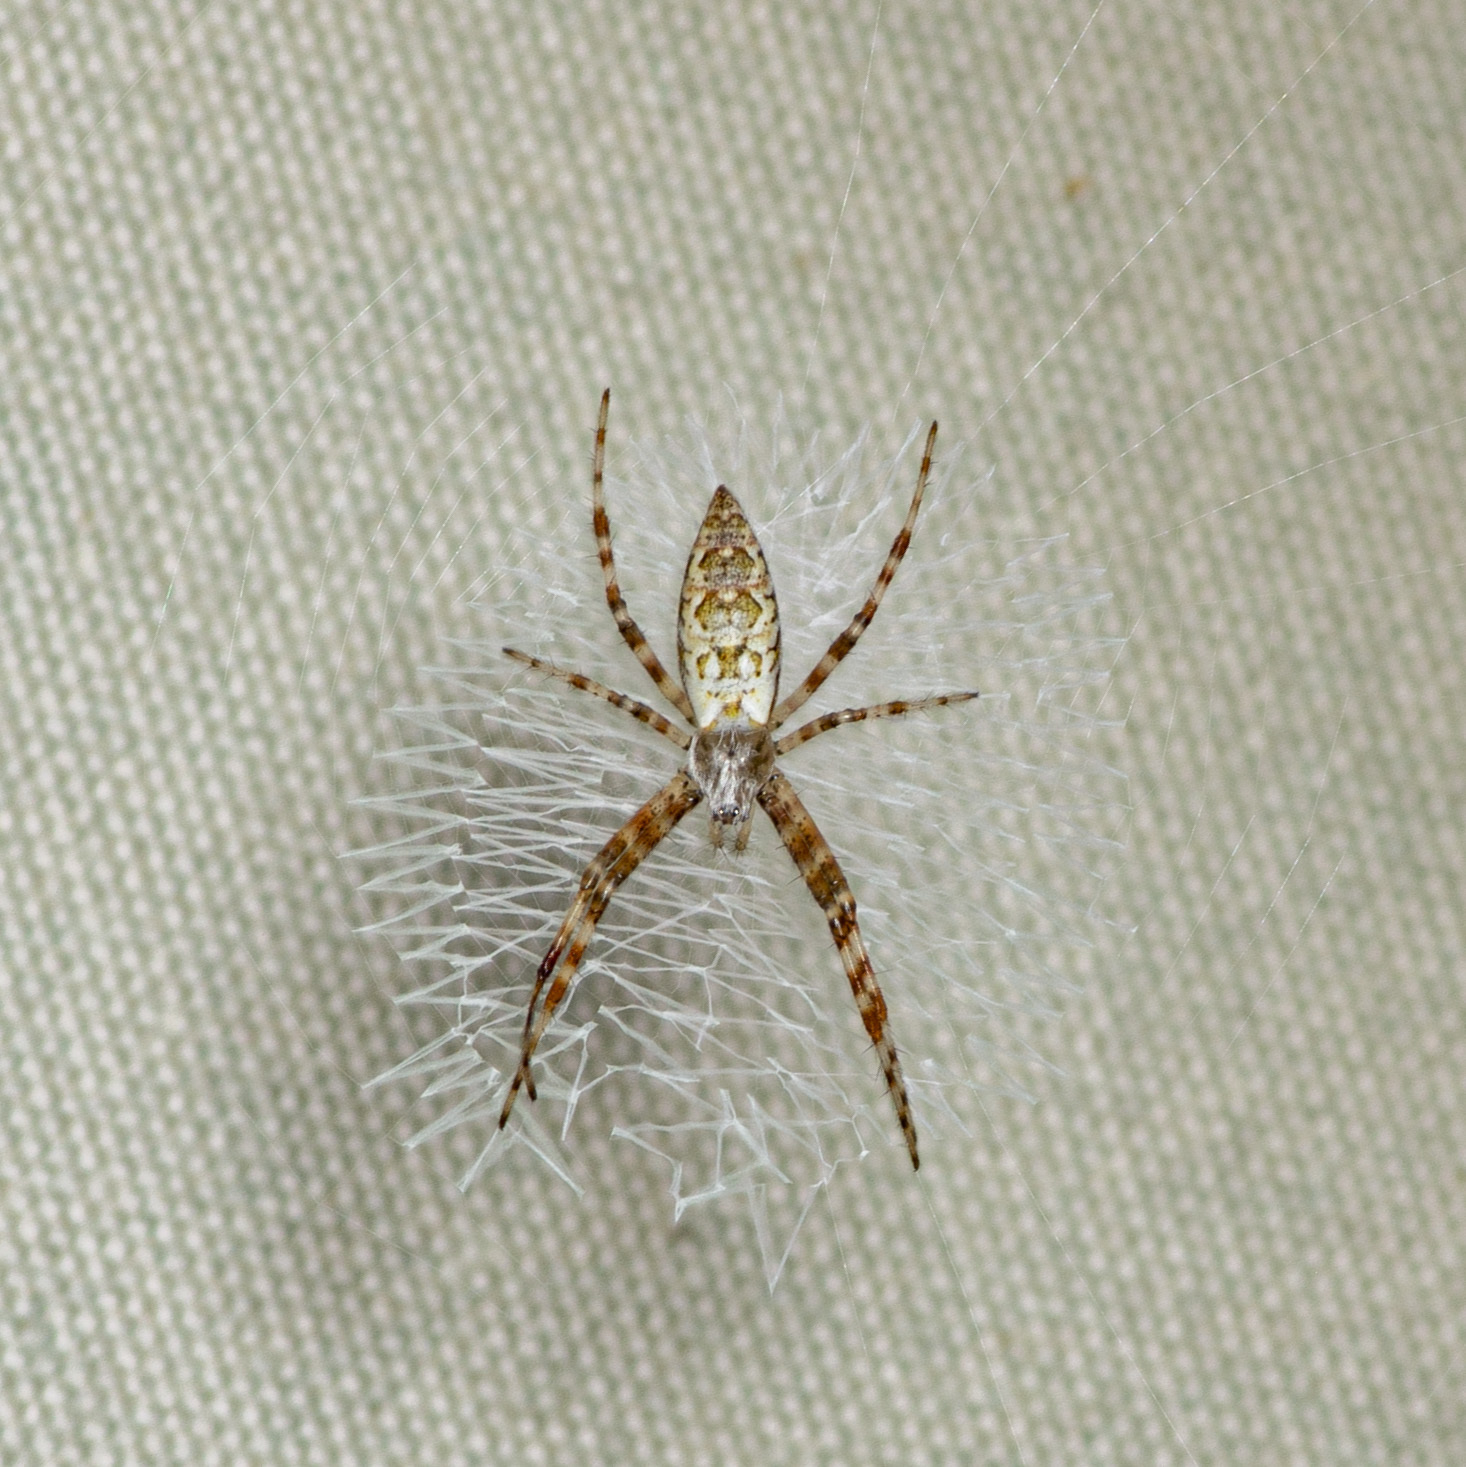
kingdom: Animalia
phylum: Arthropoda
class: Arachnida
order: Araneae
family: Araneidae
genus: Argiope
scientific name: Argiope aurantia
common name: Orb weavers
